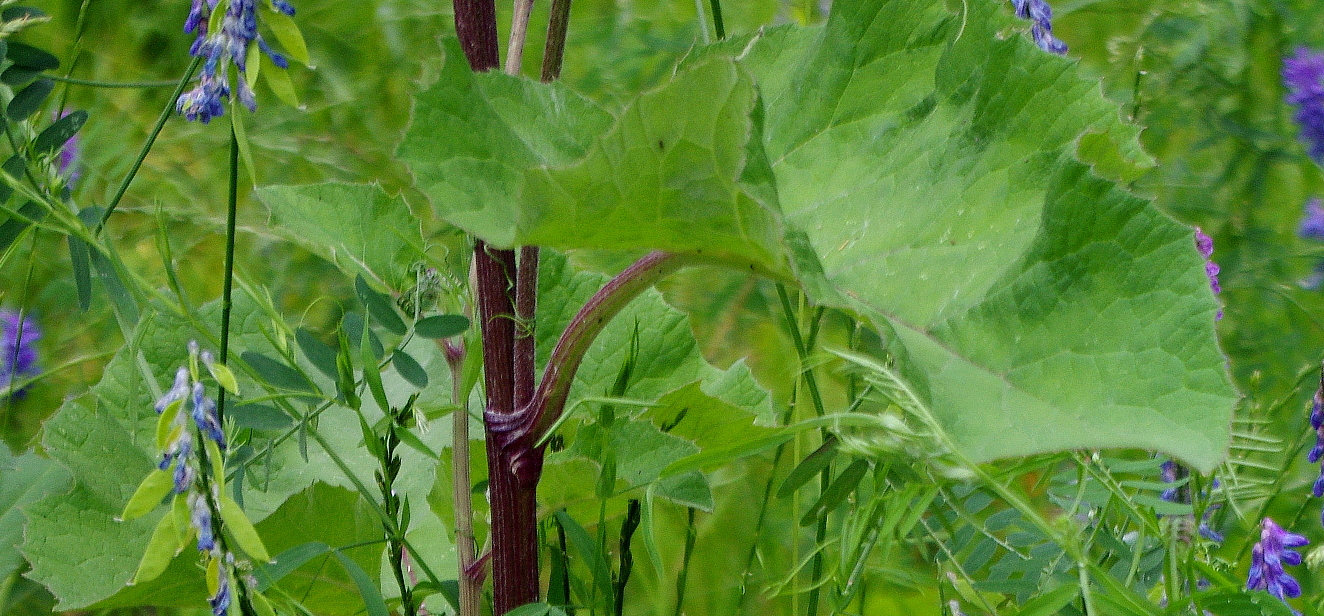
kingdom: Plantae
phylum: Tracheophyta
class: Magnoliopsida
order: Asterales
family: Asteraceae
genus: Arctium
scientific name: Arctium tomentosum
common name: Woolly burdock
